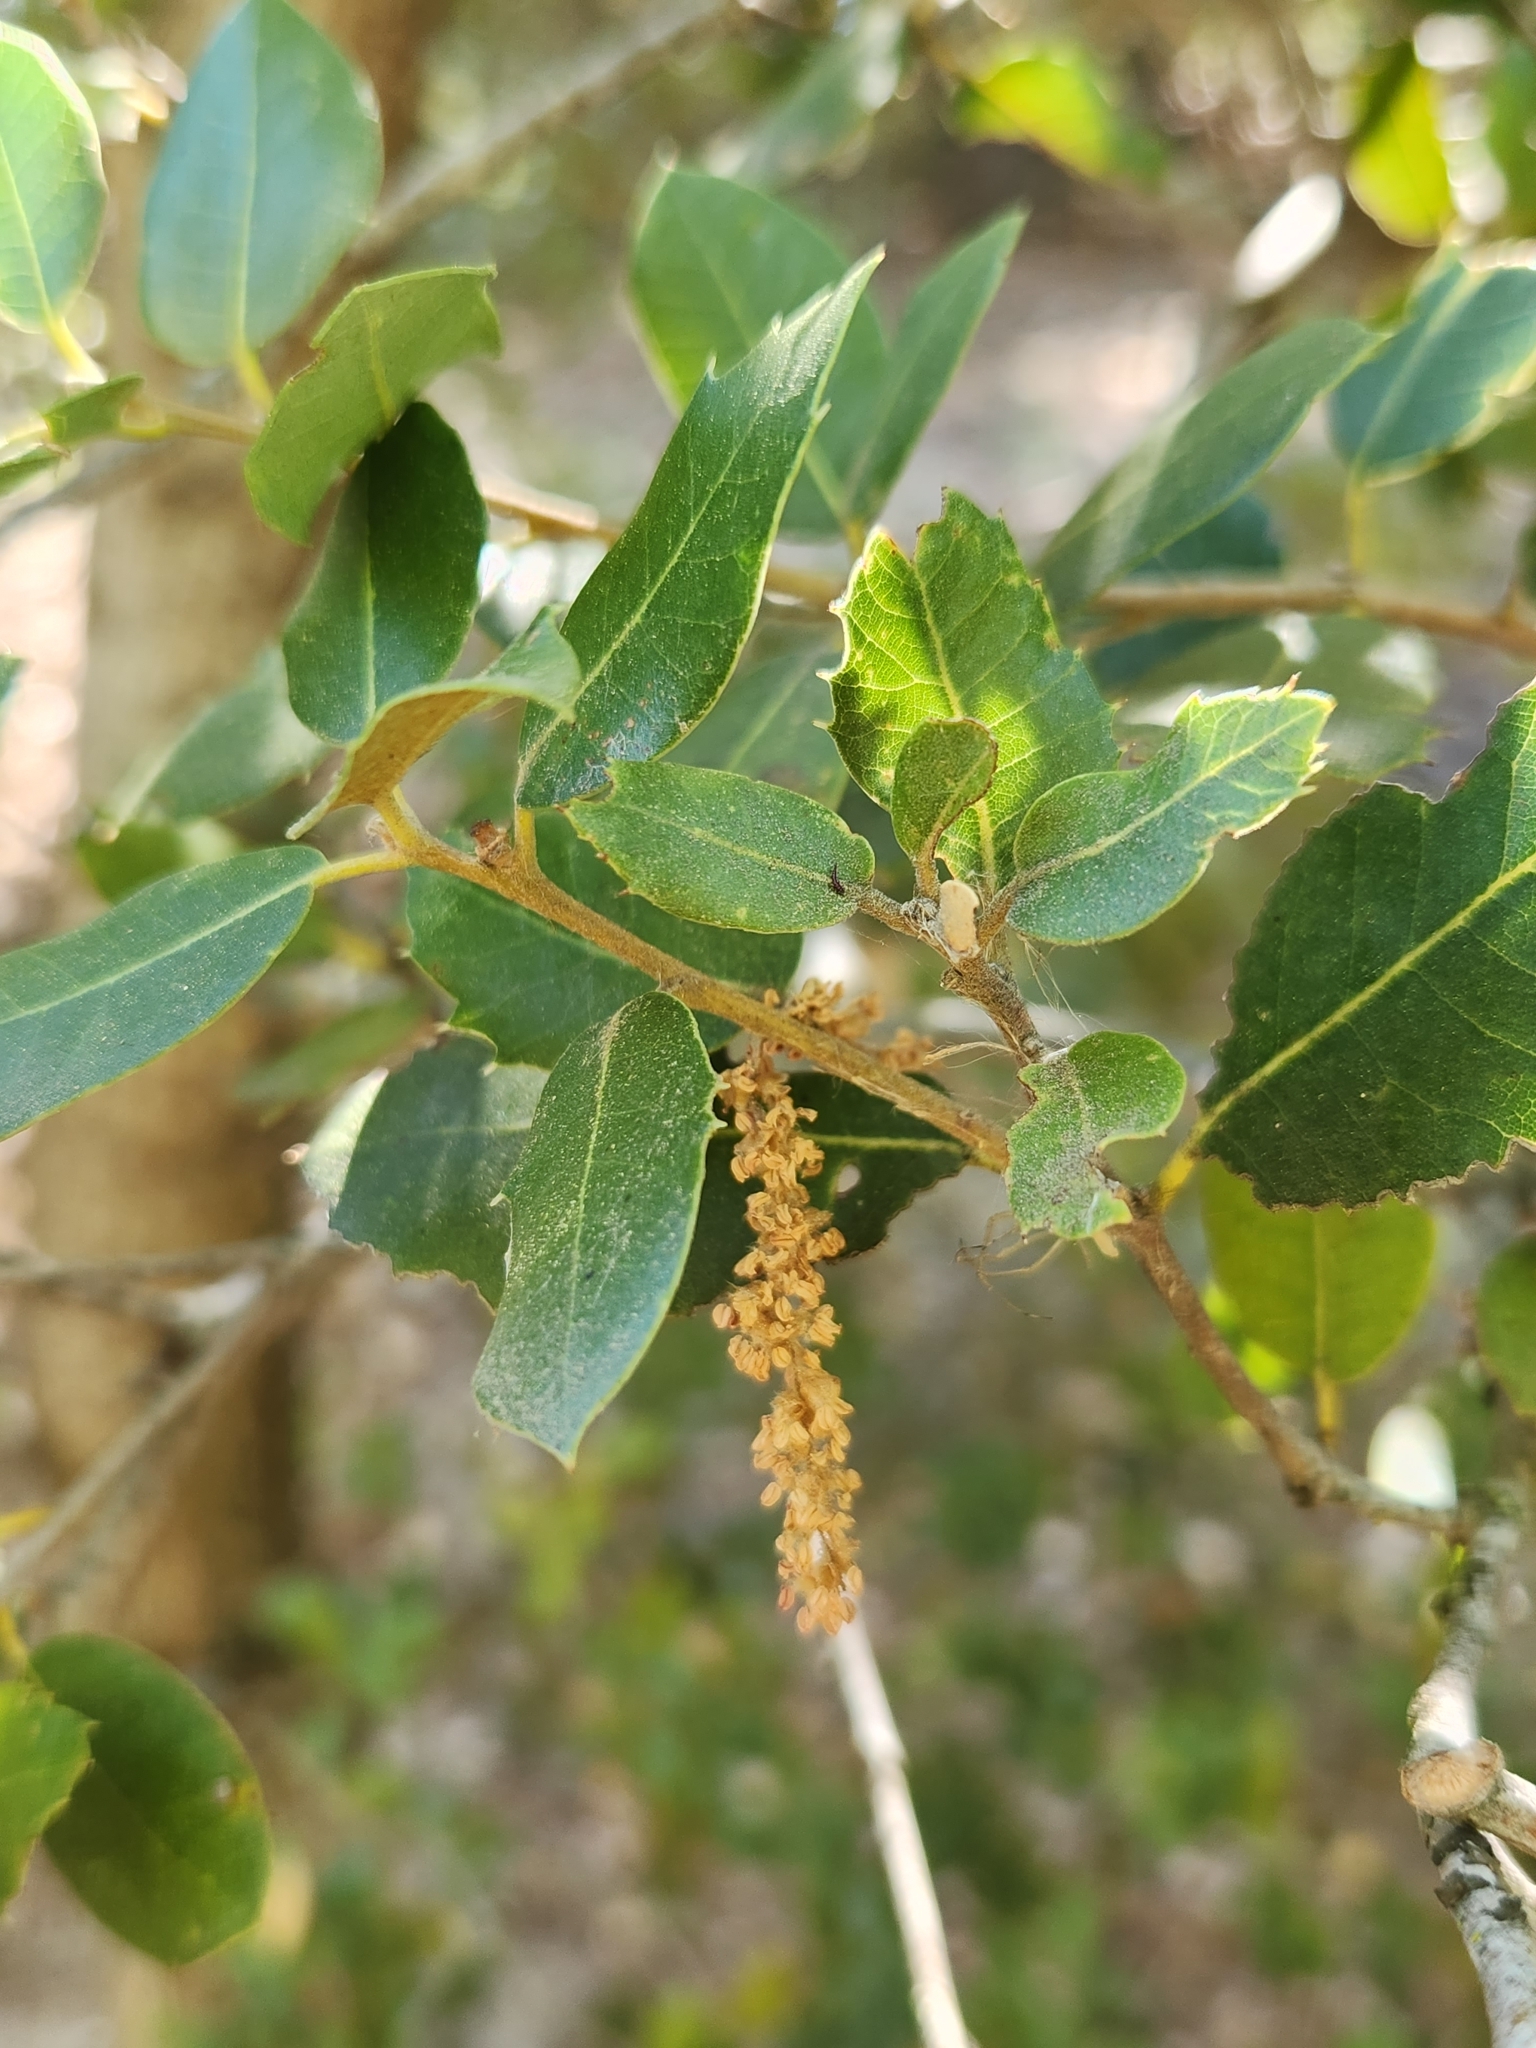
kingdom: Plantae
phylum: Tracheophyta
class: Magnoliopsida
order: Fagales
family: Fagaceae
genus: Quercus
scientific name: Quercus chrysolepis
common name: Canyon live oak
